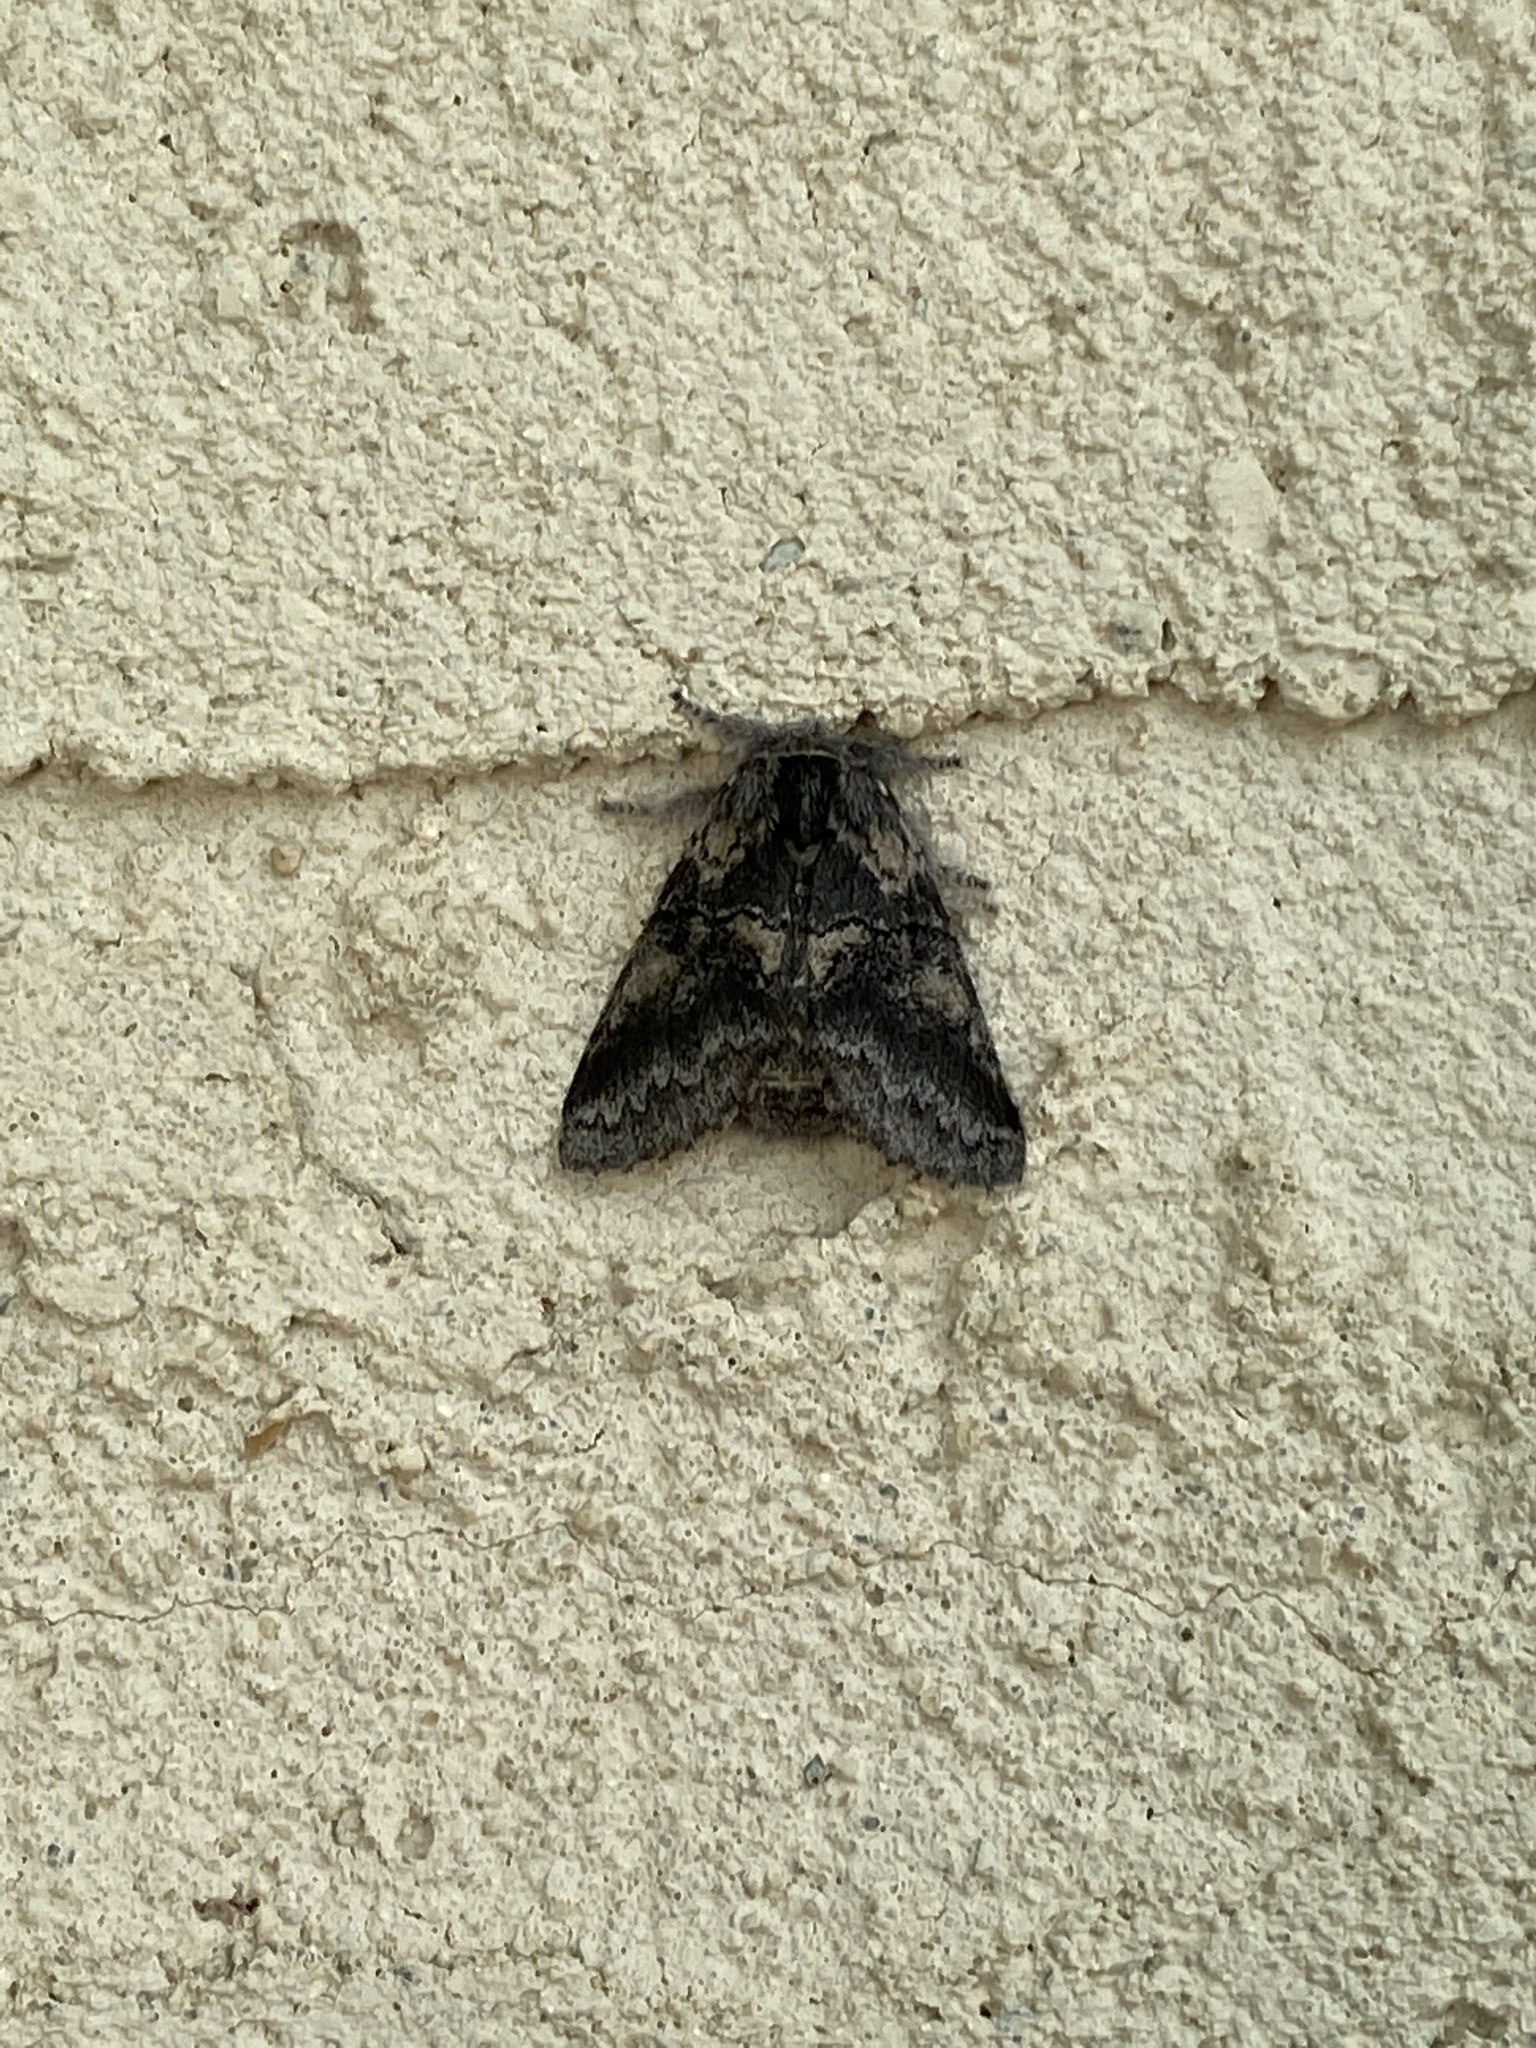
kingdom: Animalia
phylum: Arthropoda
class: Insecta
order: Lepidoptera
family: Notodontidae
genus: Gluphisia
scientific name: Gluphisia septentrionis
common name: Common gluphisia
